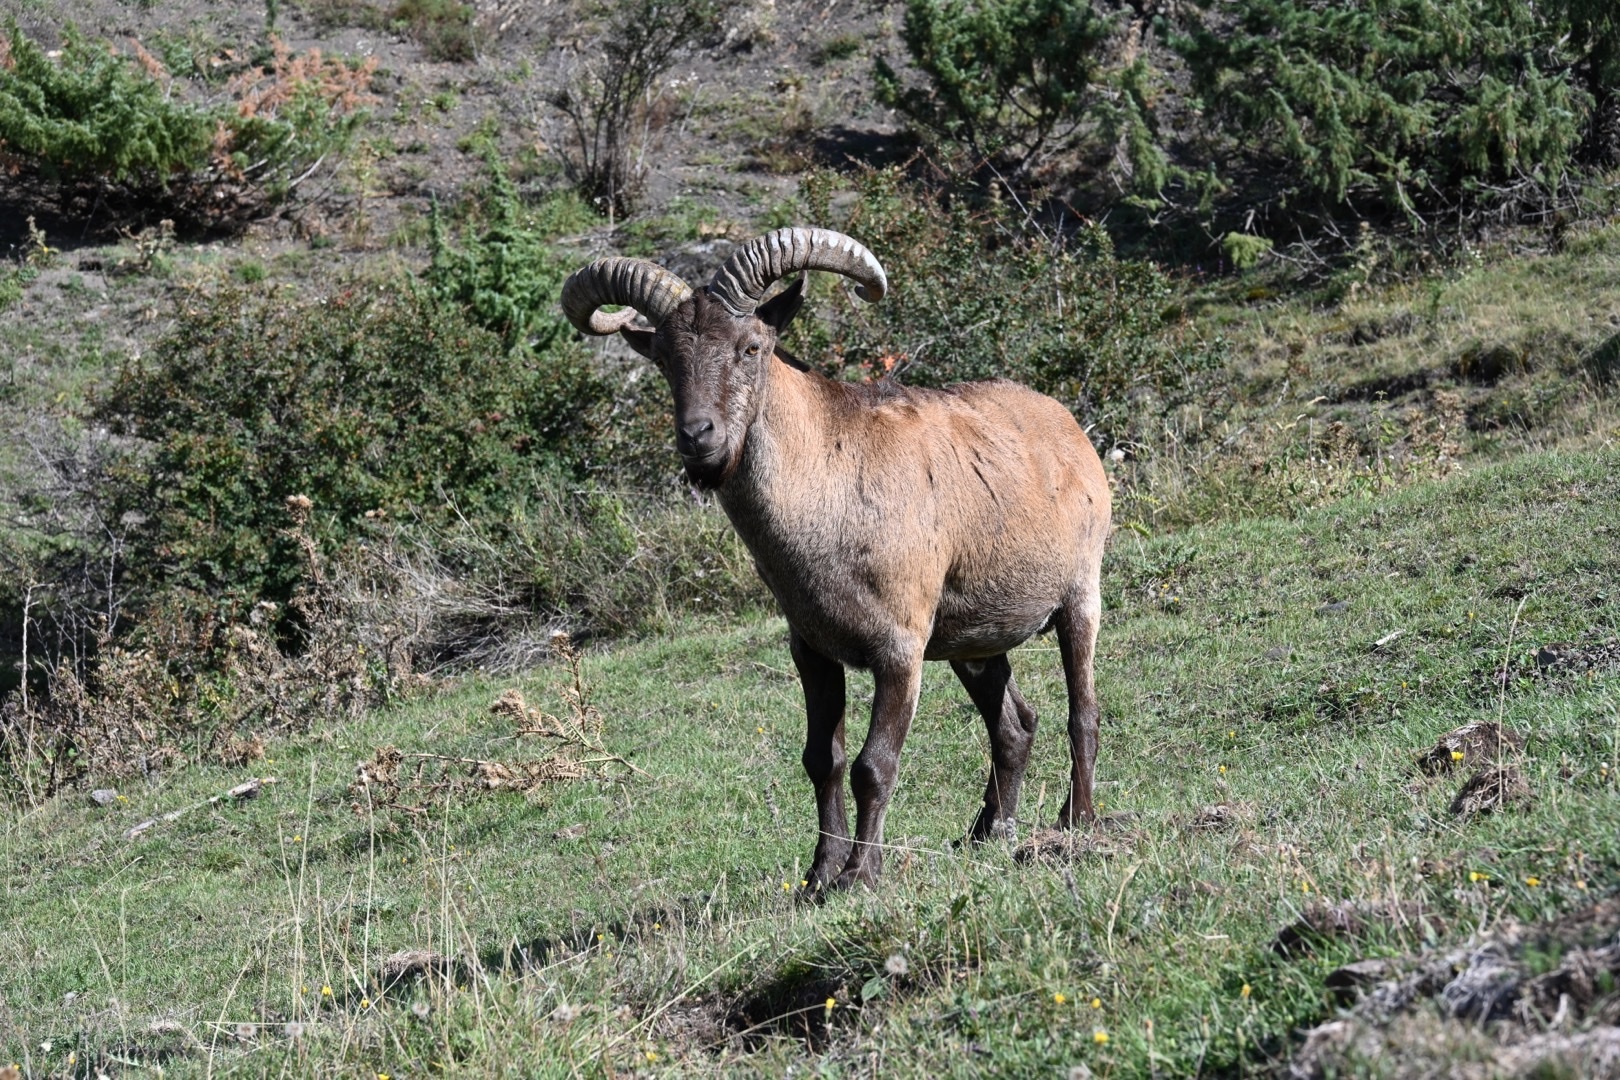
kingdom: Animalia
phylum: Chordata
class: Mammalia
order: Artiodactyla
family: Bovidae
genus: Capra
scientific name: Capra caucasica
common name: Tur
